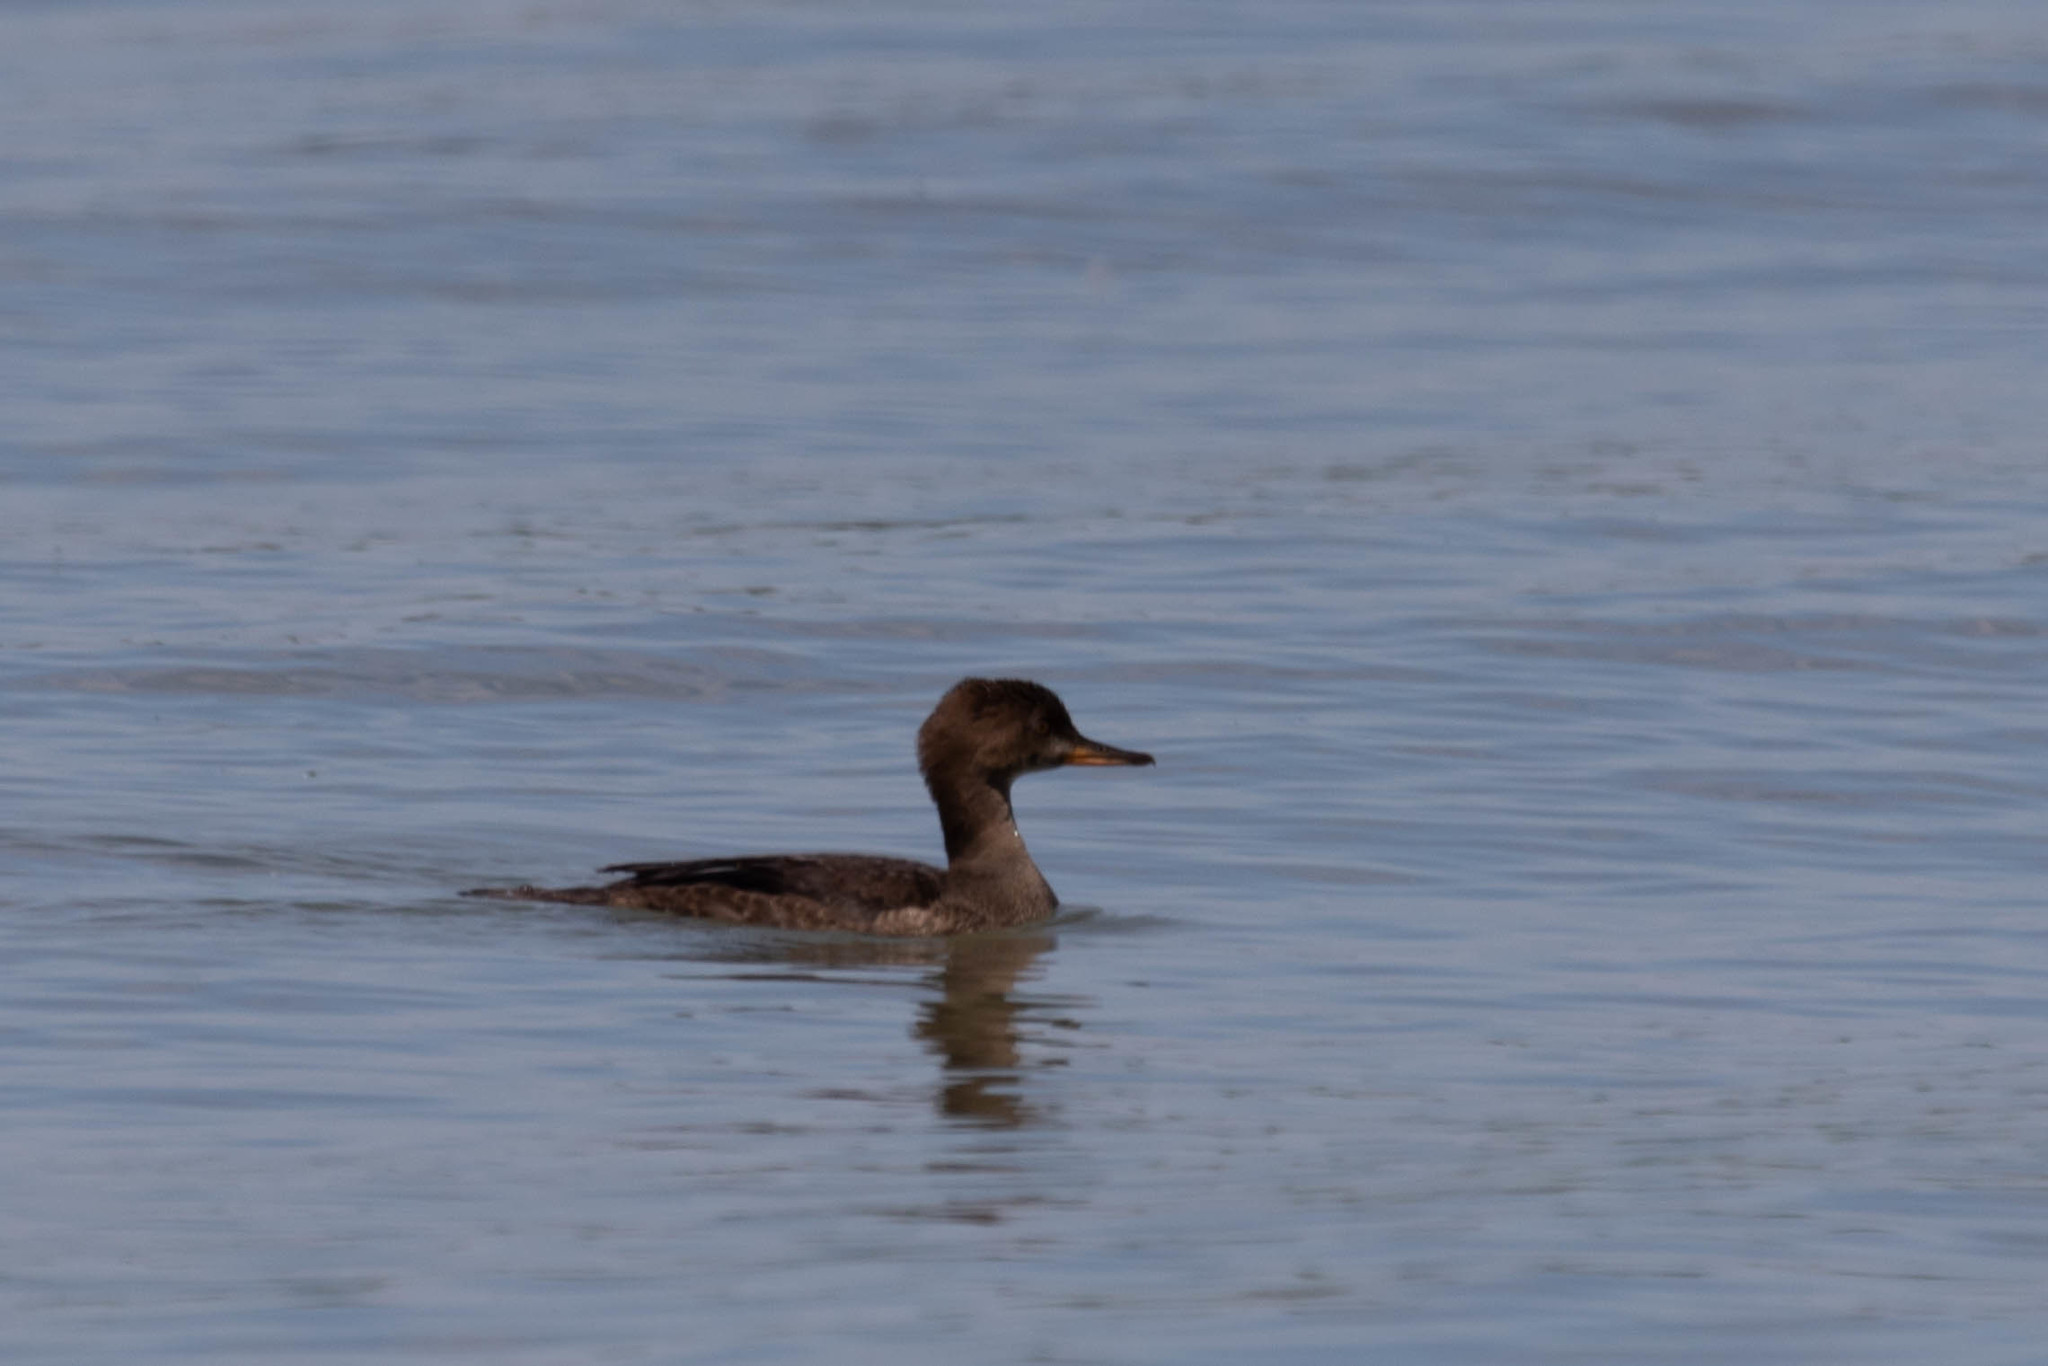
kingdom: Animalia
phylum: Chordata
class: Aves
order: Anseriformes
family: Anatidae
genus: Lophodytes
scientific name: Lophodytes cucullatus
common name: Hooded merganser
